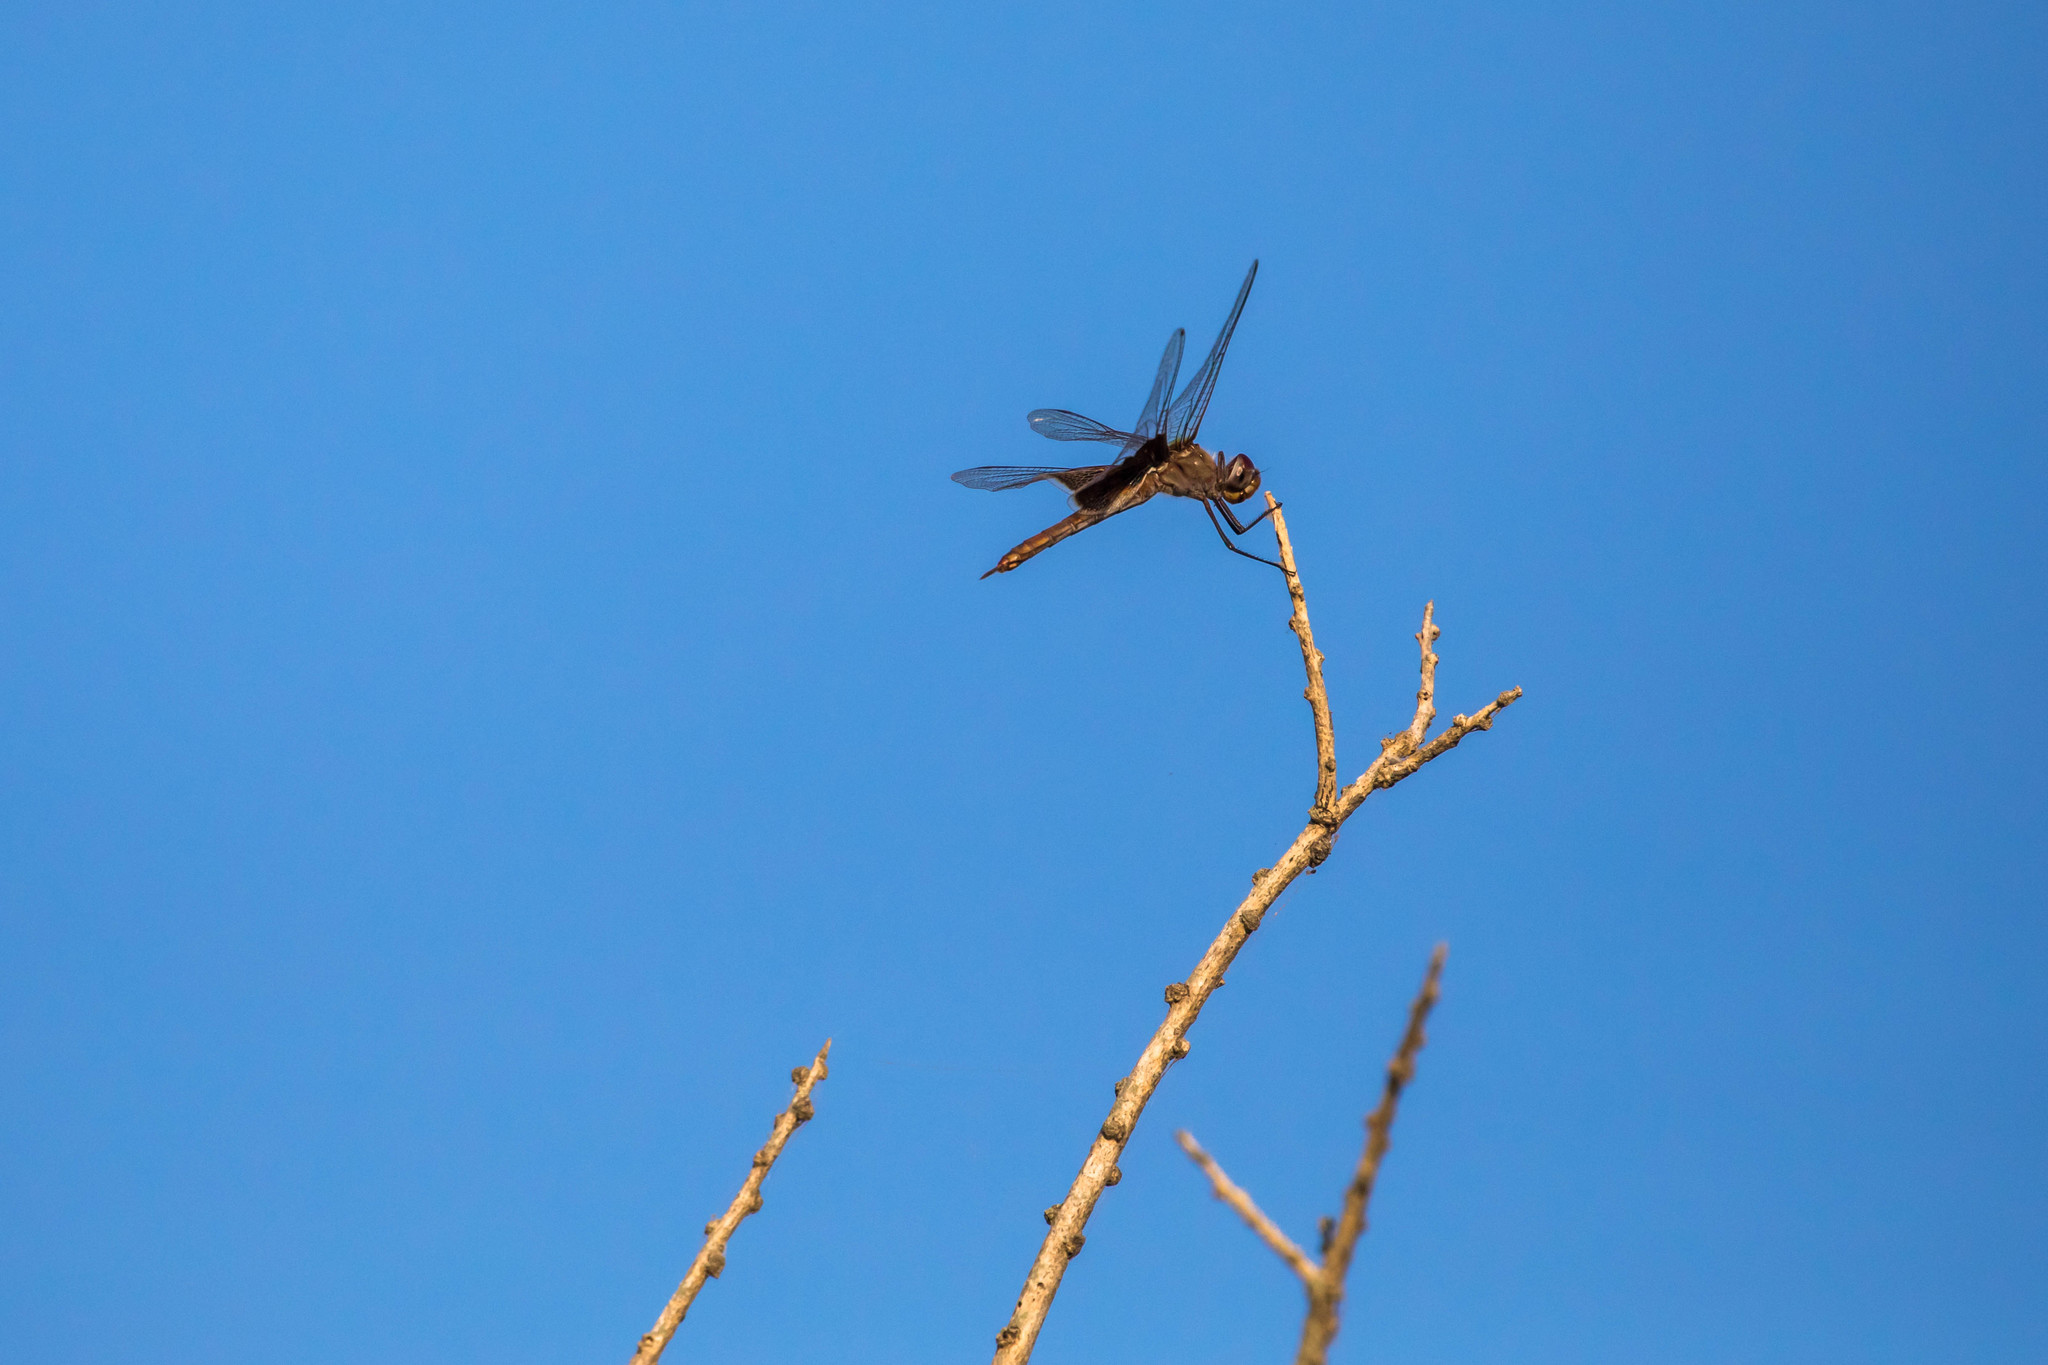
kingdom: Animalia
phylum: Arthropoda
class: Insecta
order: Odonata
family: Libellulidae
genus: Tramea
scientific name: Tramea onusta
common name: Red saddlebags
